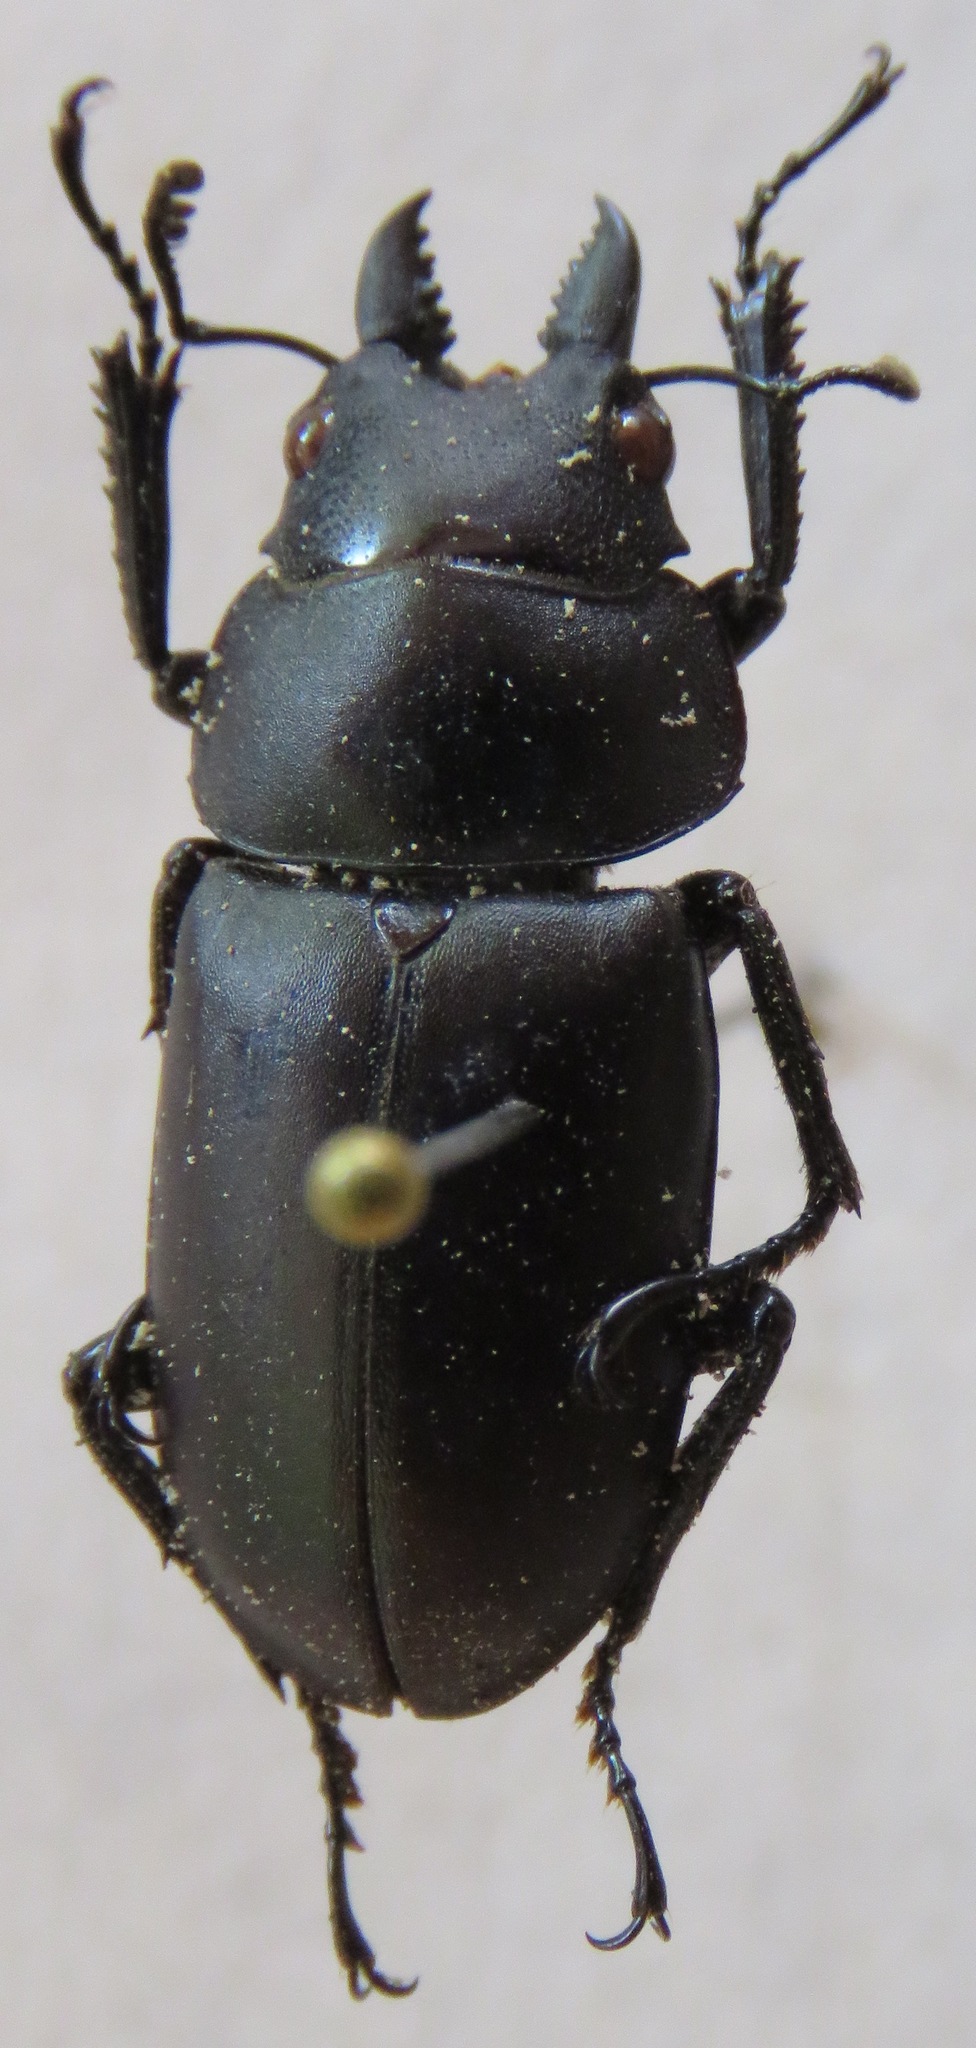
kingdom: Animalia
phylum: Arthropoda
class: Insecta
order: Coleoptera
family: Lucanidae
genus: Prosopocoilus
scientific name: Prosopocoilus oweni
